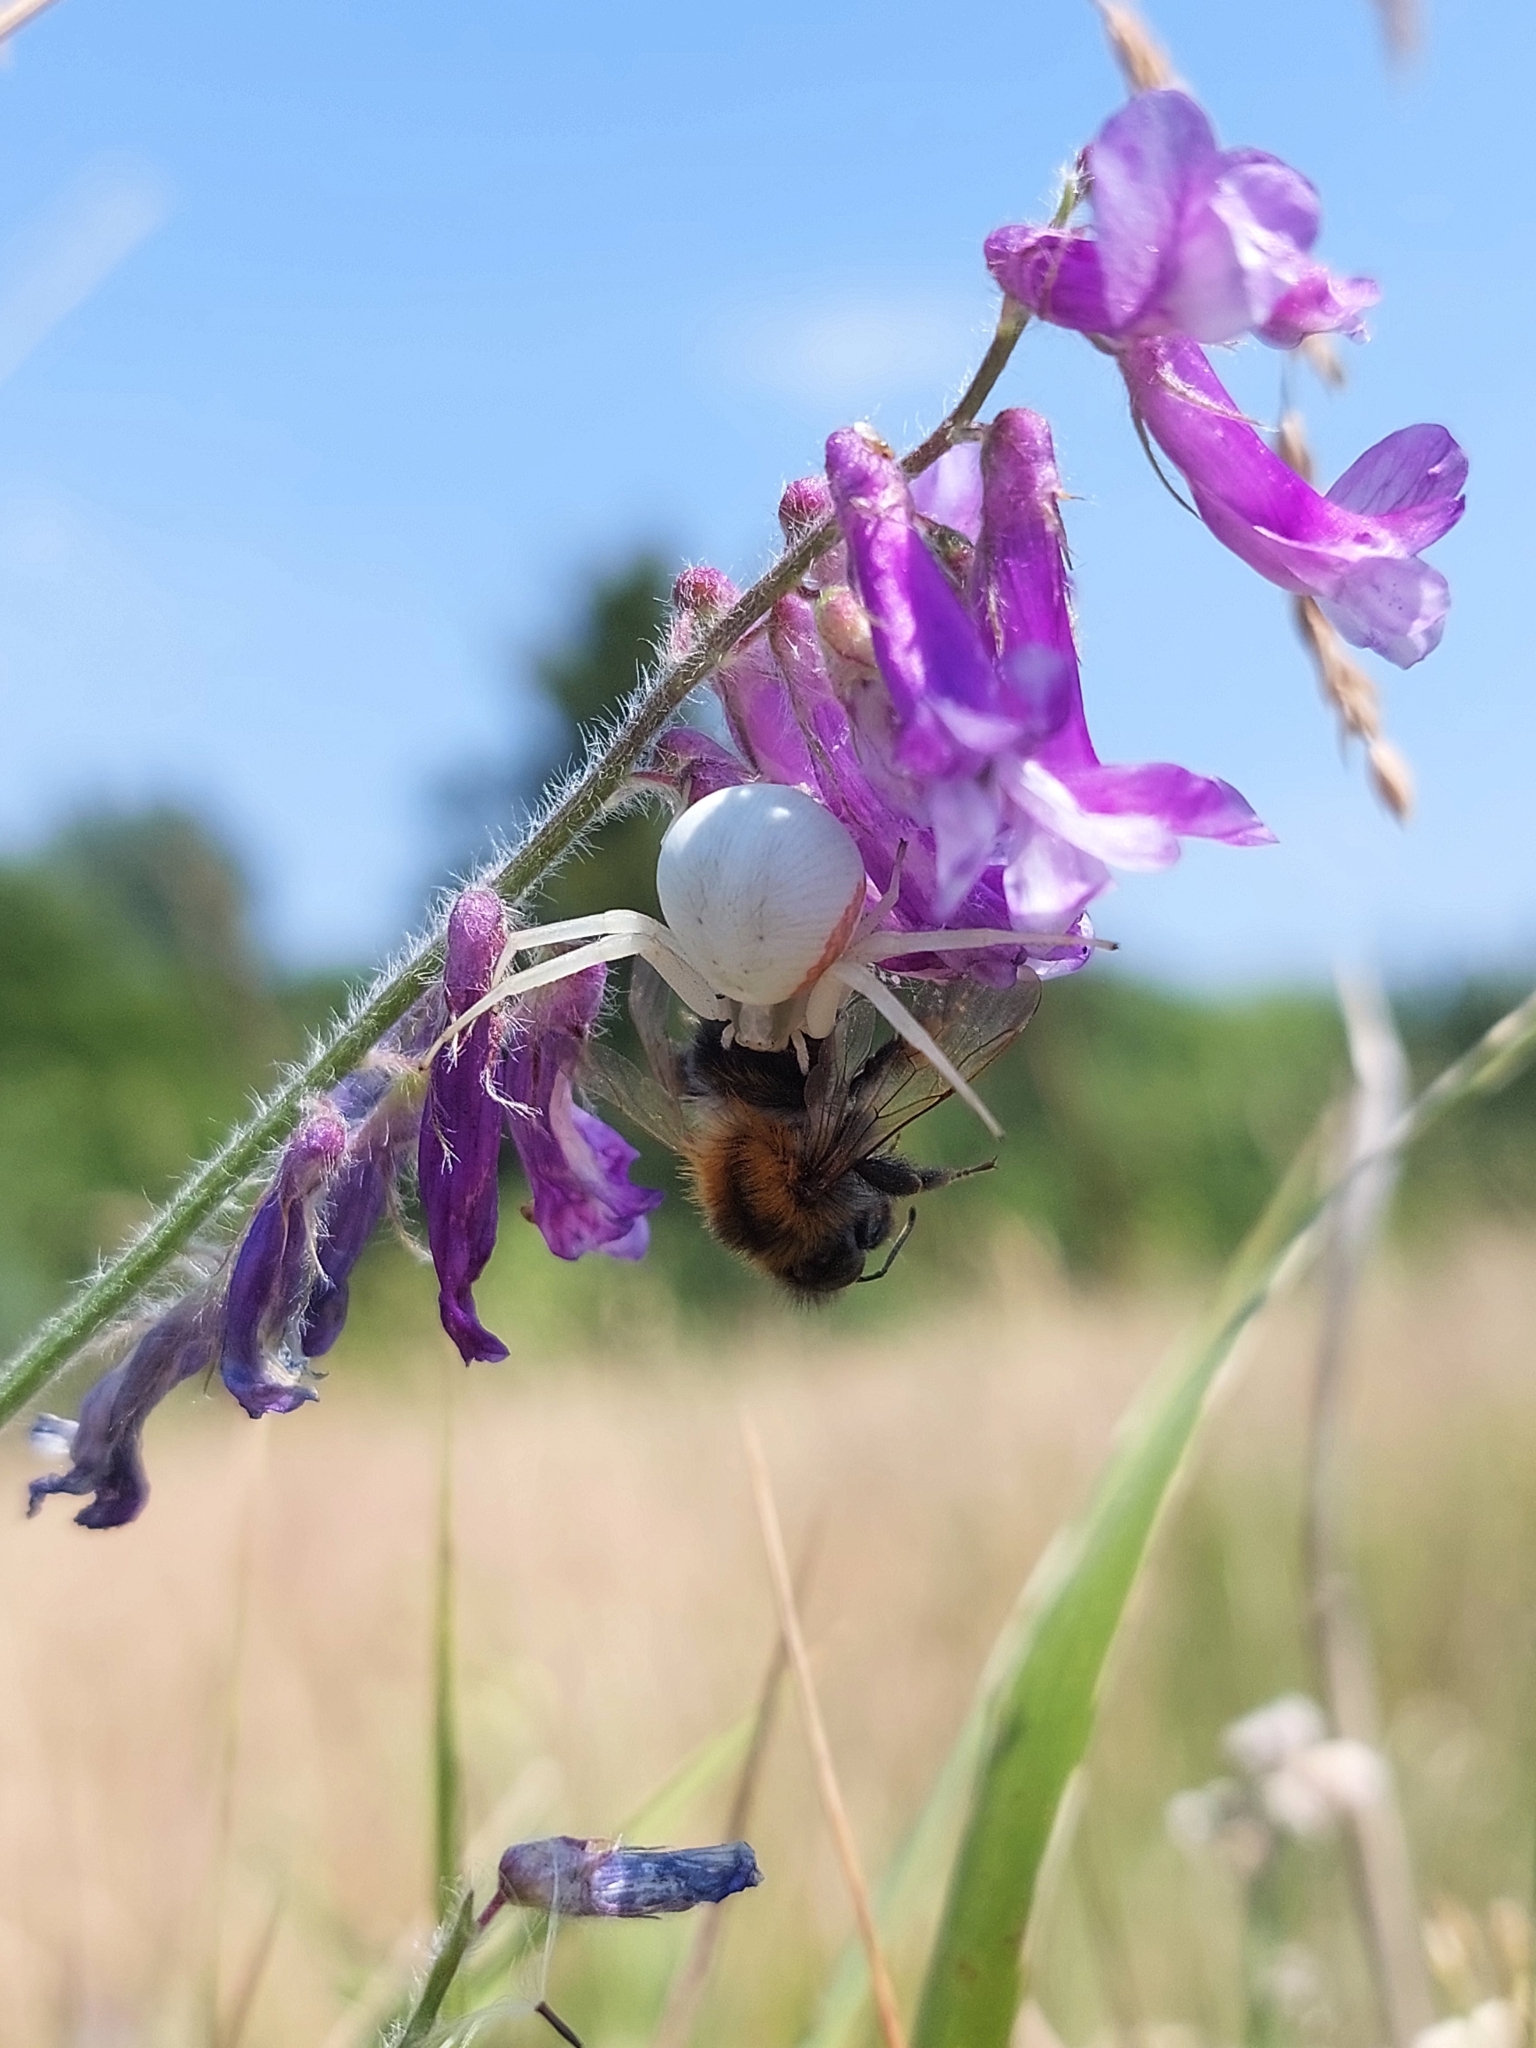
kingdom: Animalia
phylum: Arthropoda
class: Arachnida
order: Araneae
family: Thomisidae
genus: Misumena
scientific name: Misumena vatia
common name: Goldenrod crab spider
